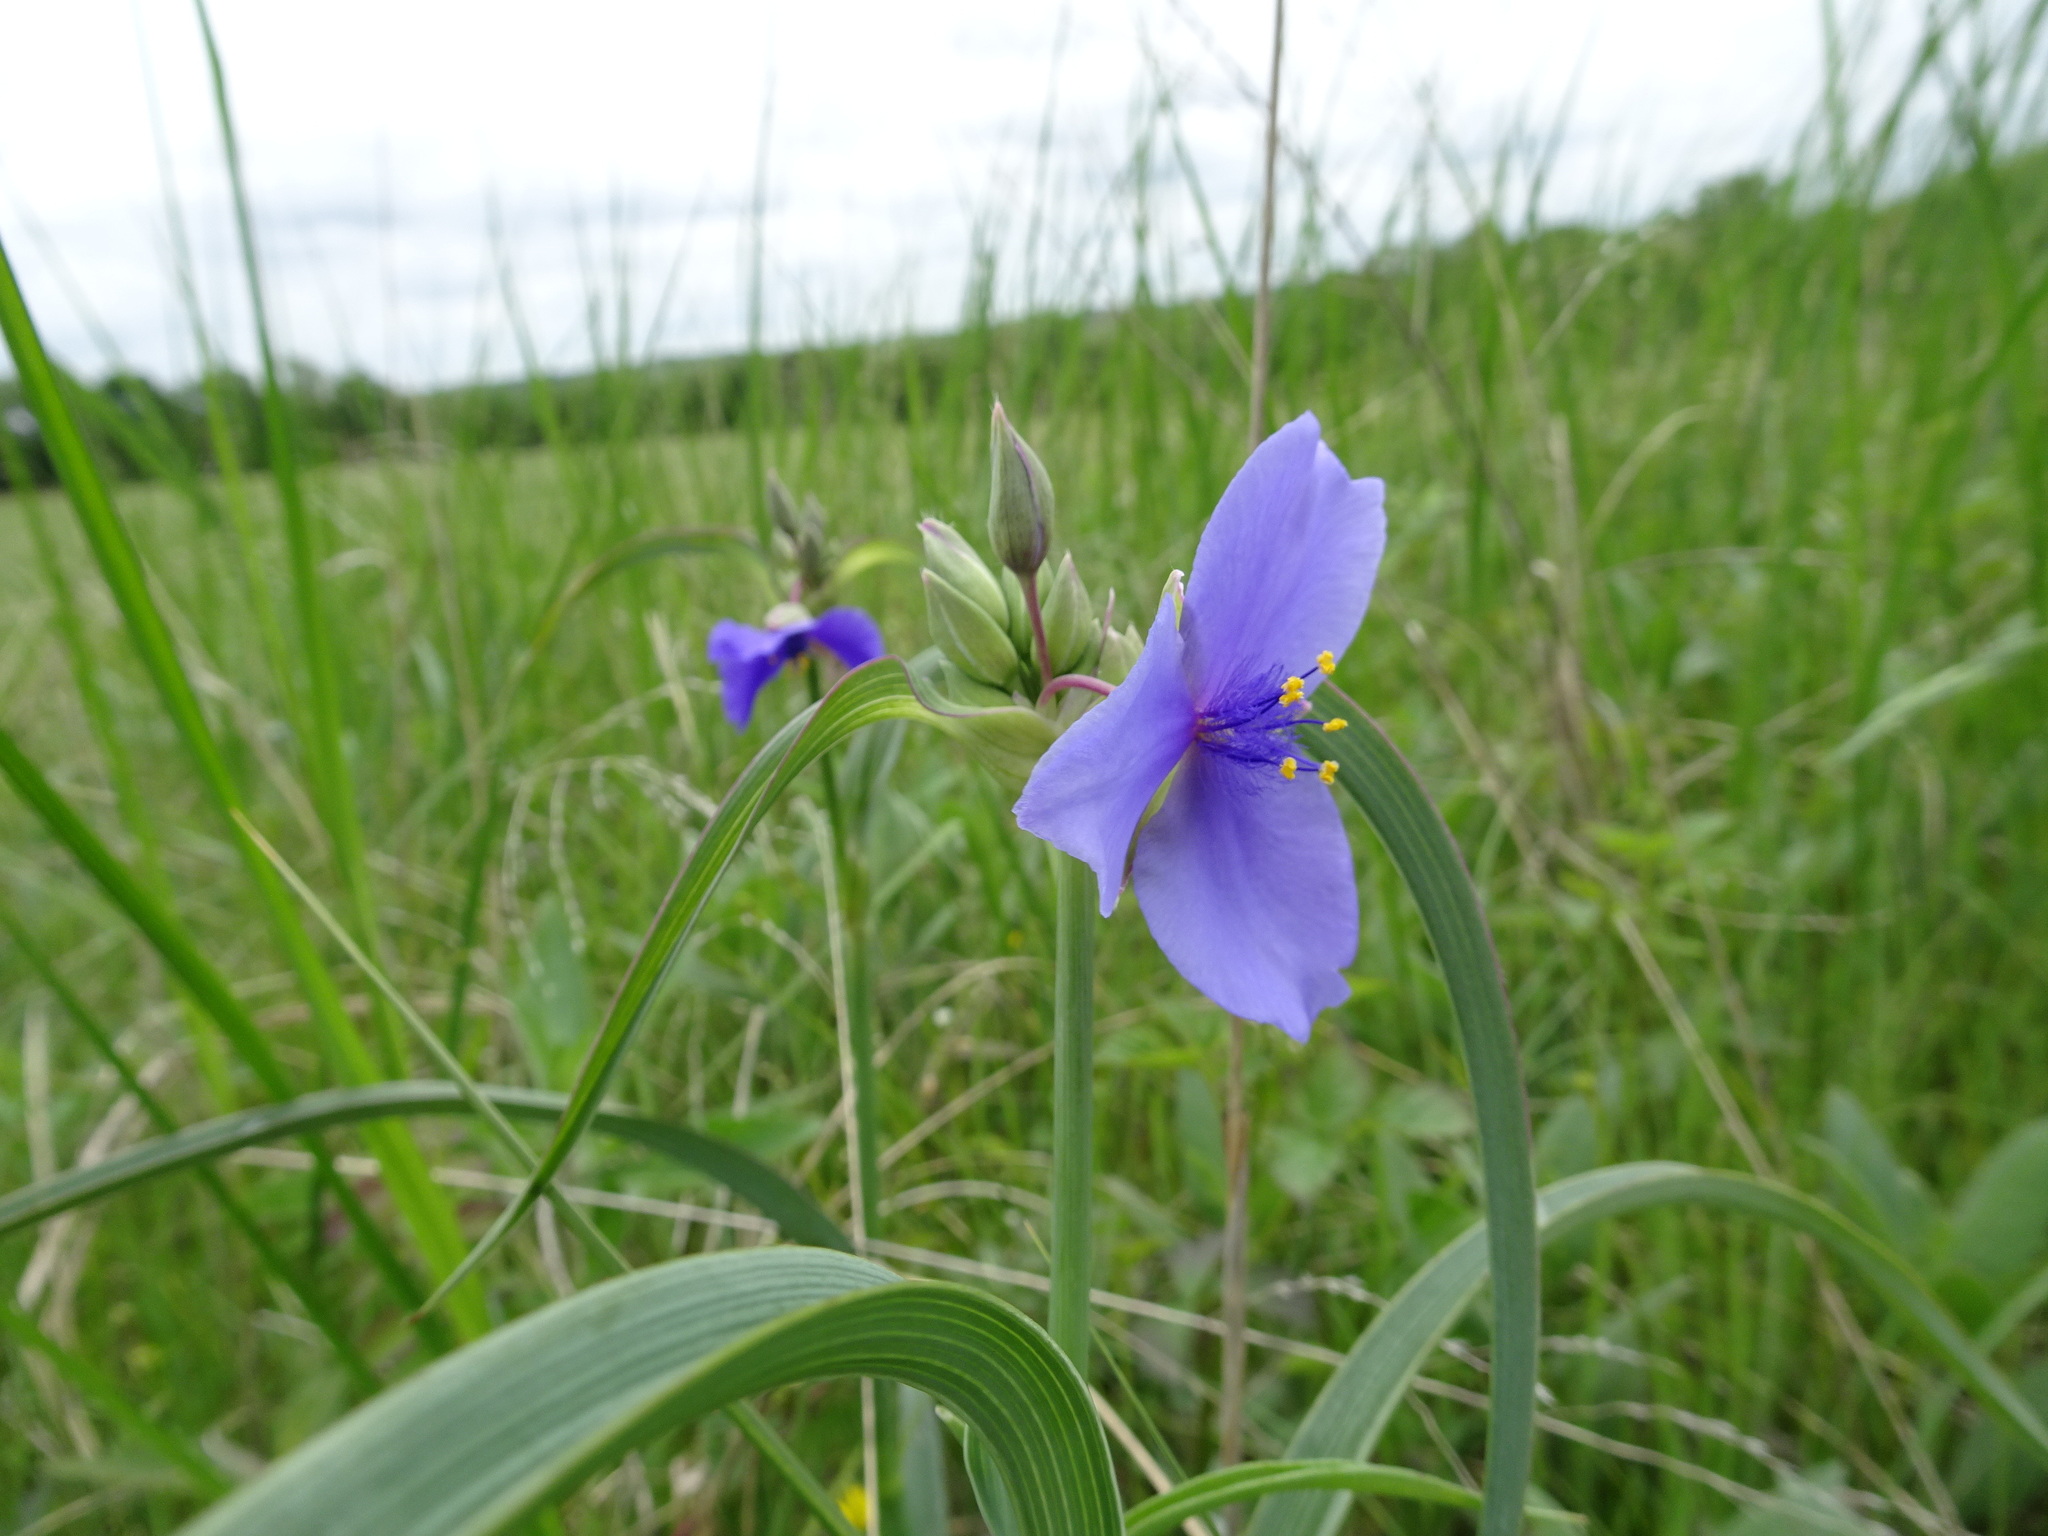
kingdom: Plantae
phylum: Tracheophyta
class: Liliopsida
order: Commelinales
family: Commelinaceae
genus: Tradescantia
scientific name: Tradescantia ohiensis
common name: Ohio spiderwort
